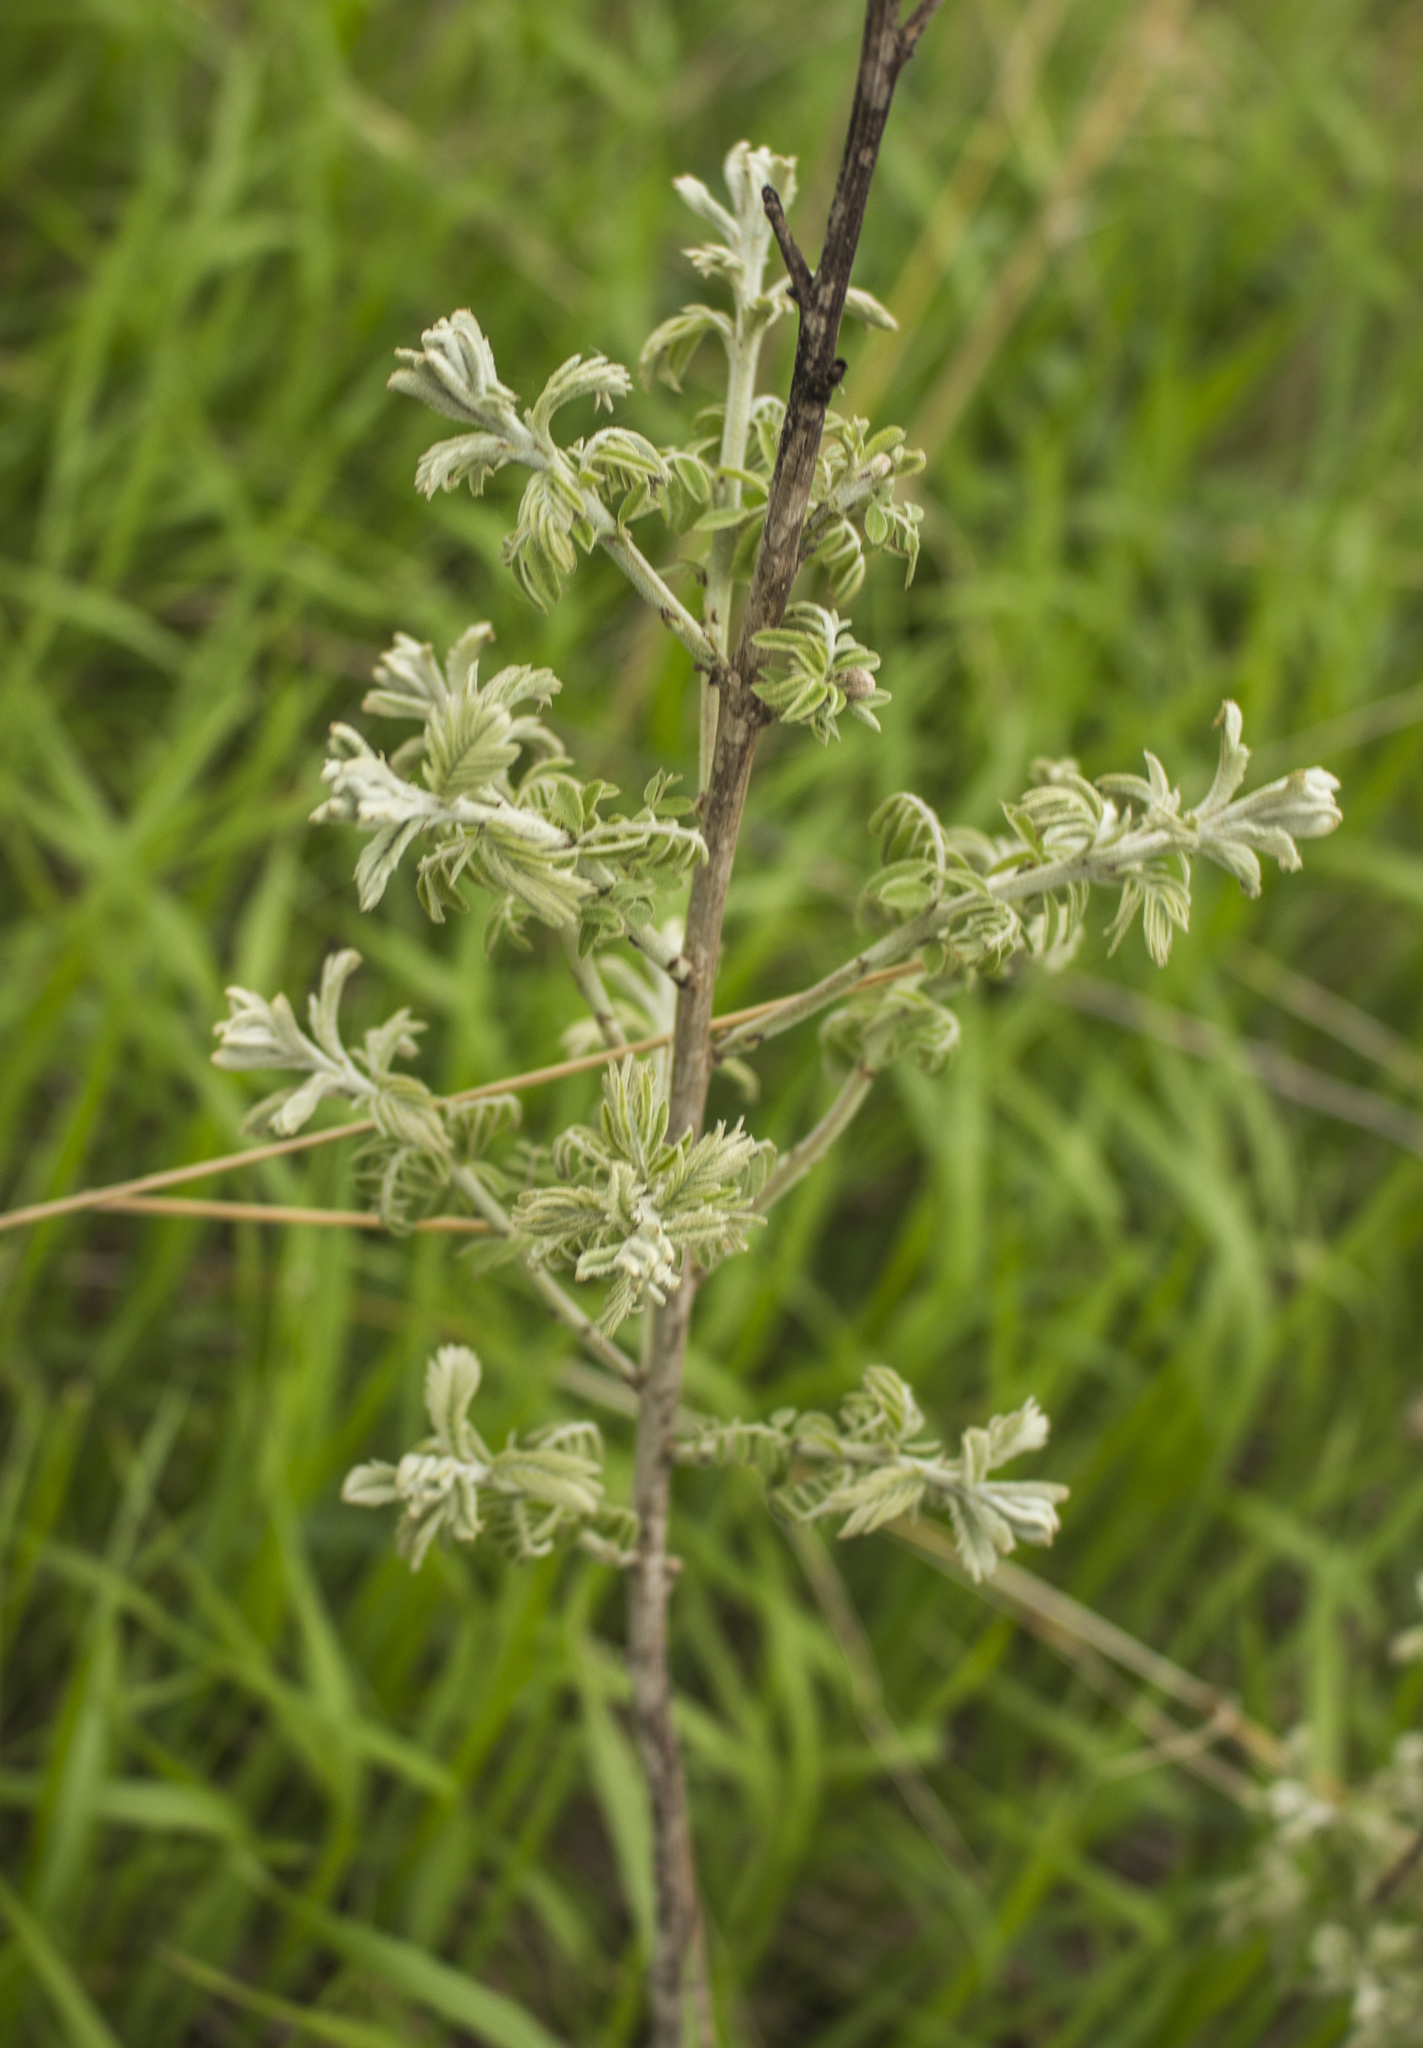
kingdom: Plantae
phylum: Tracheophyta
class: Magnoliopsida
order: Fabales
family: Fabaceae
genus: Amorpha
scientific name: Amorpha canescens
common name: Leadplant
